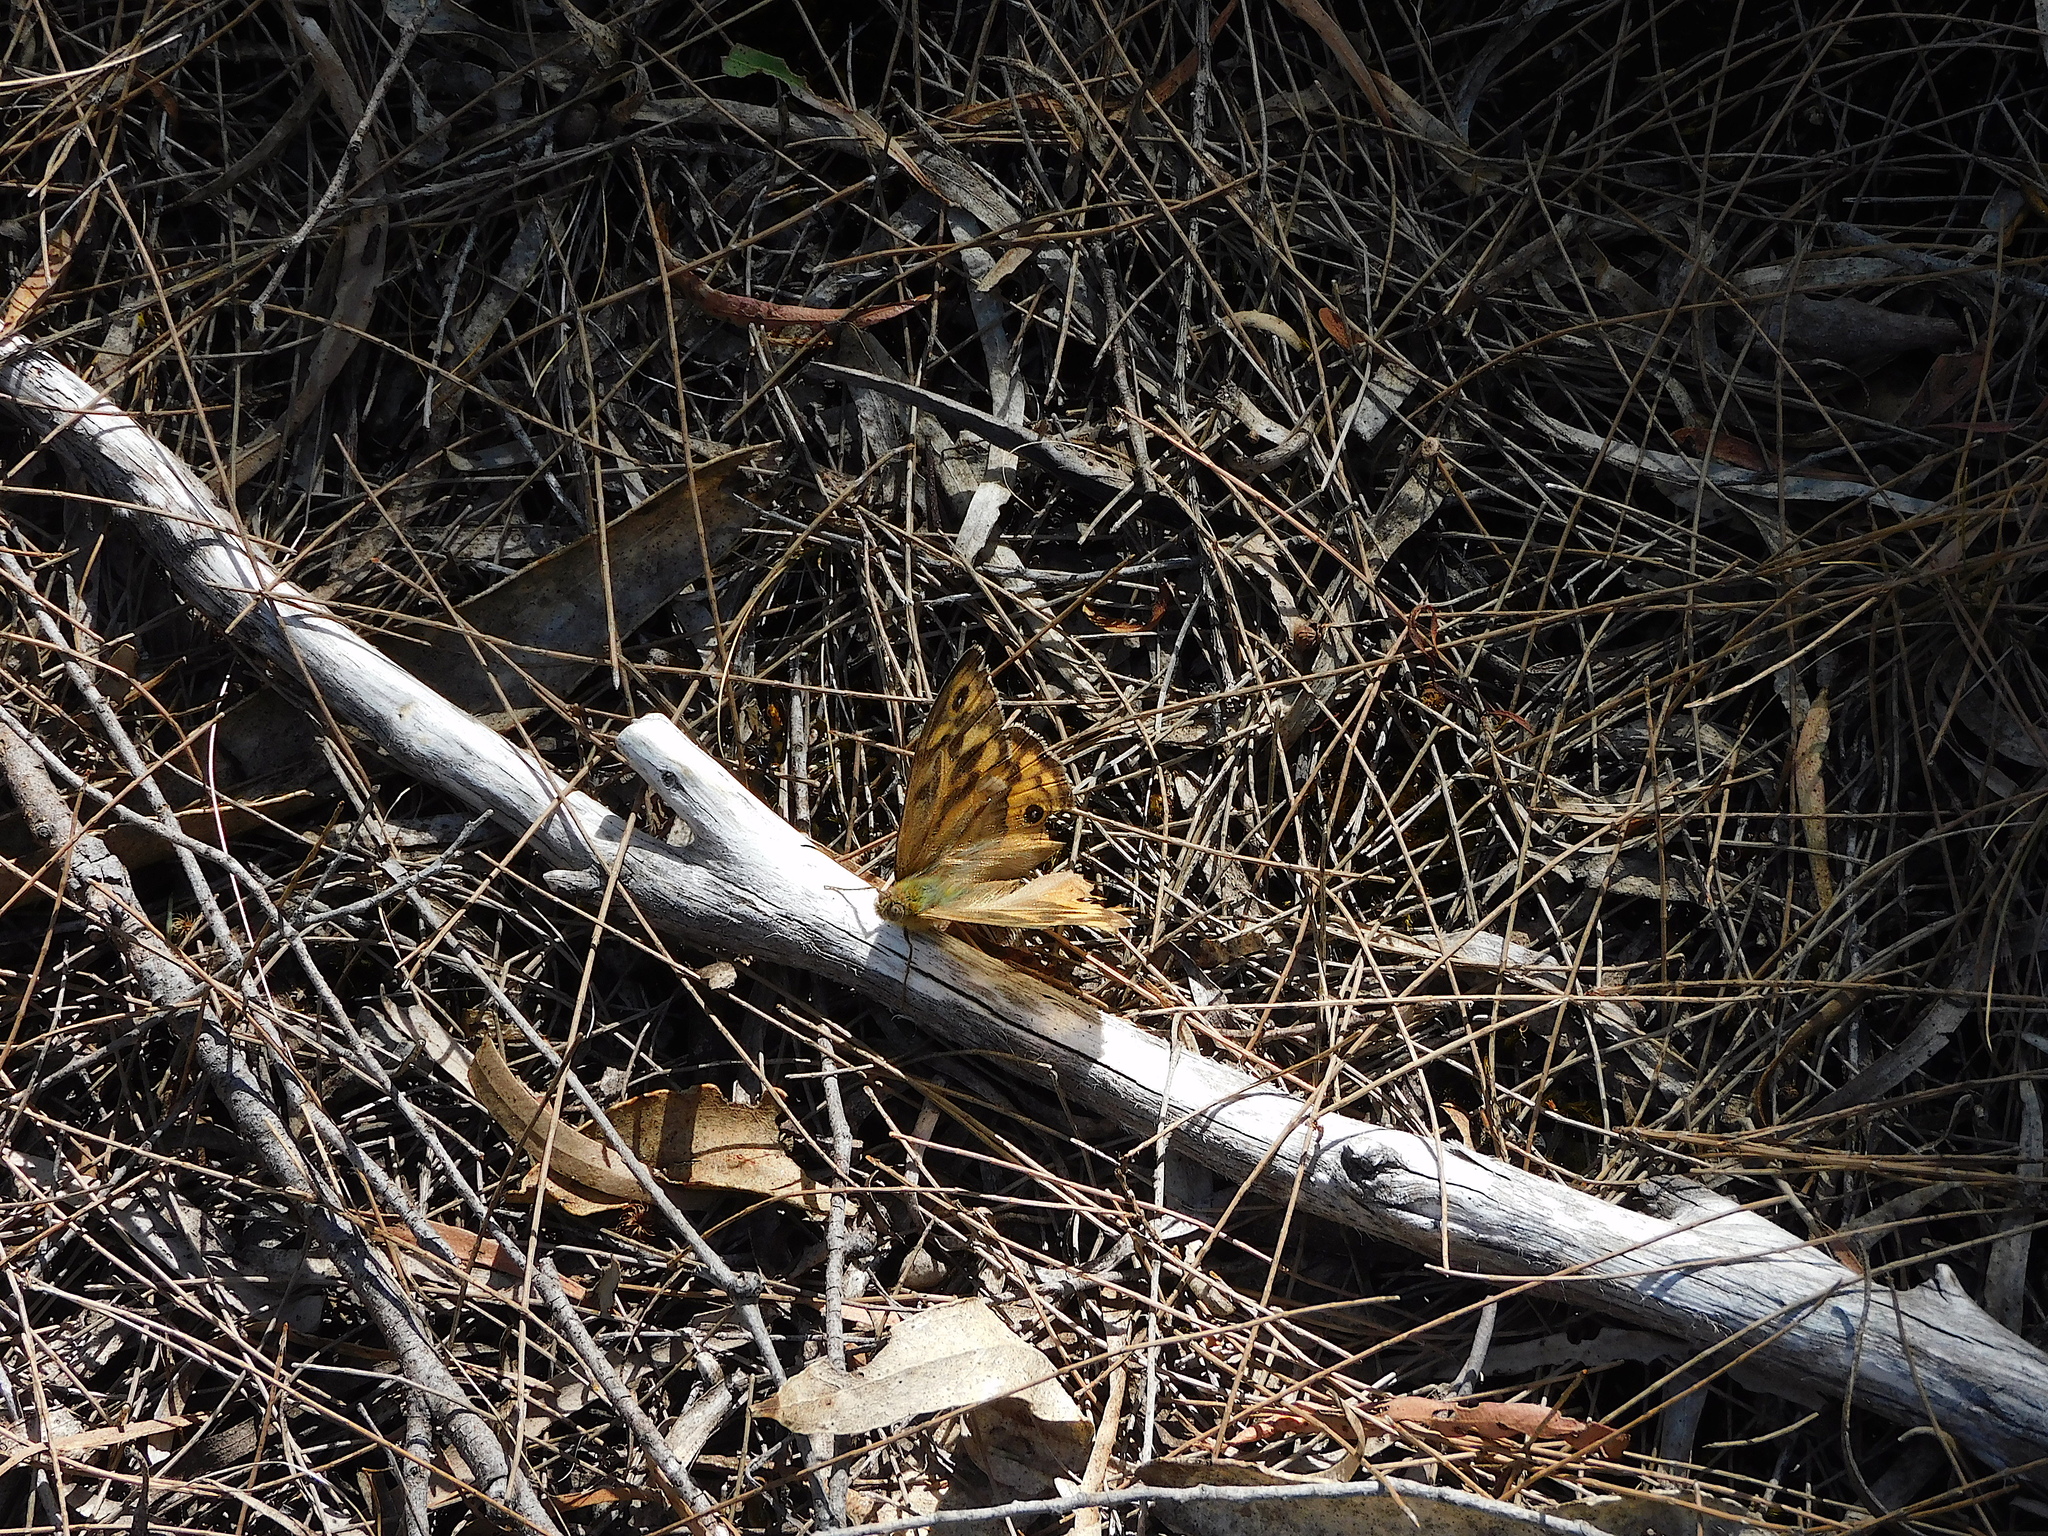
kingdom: Animalia
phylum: Arthropoda
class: Insecta
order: Lepidoptera
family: Nymphalidae
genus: Heteronympha
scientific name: Heteronympha merope
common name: Common brown
